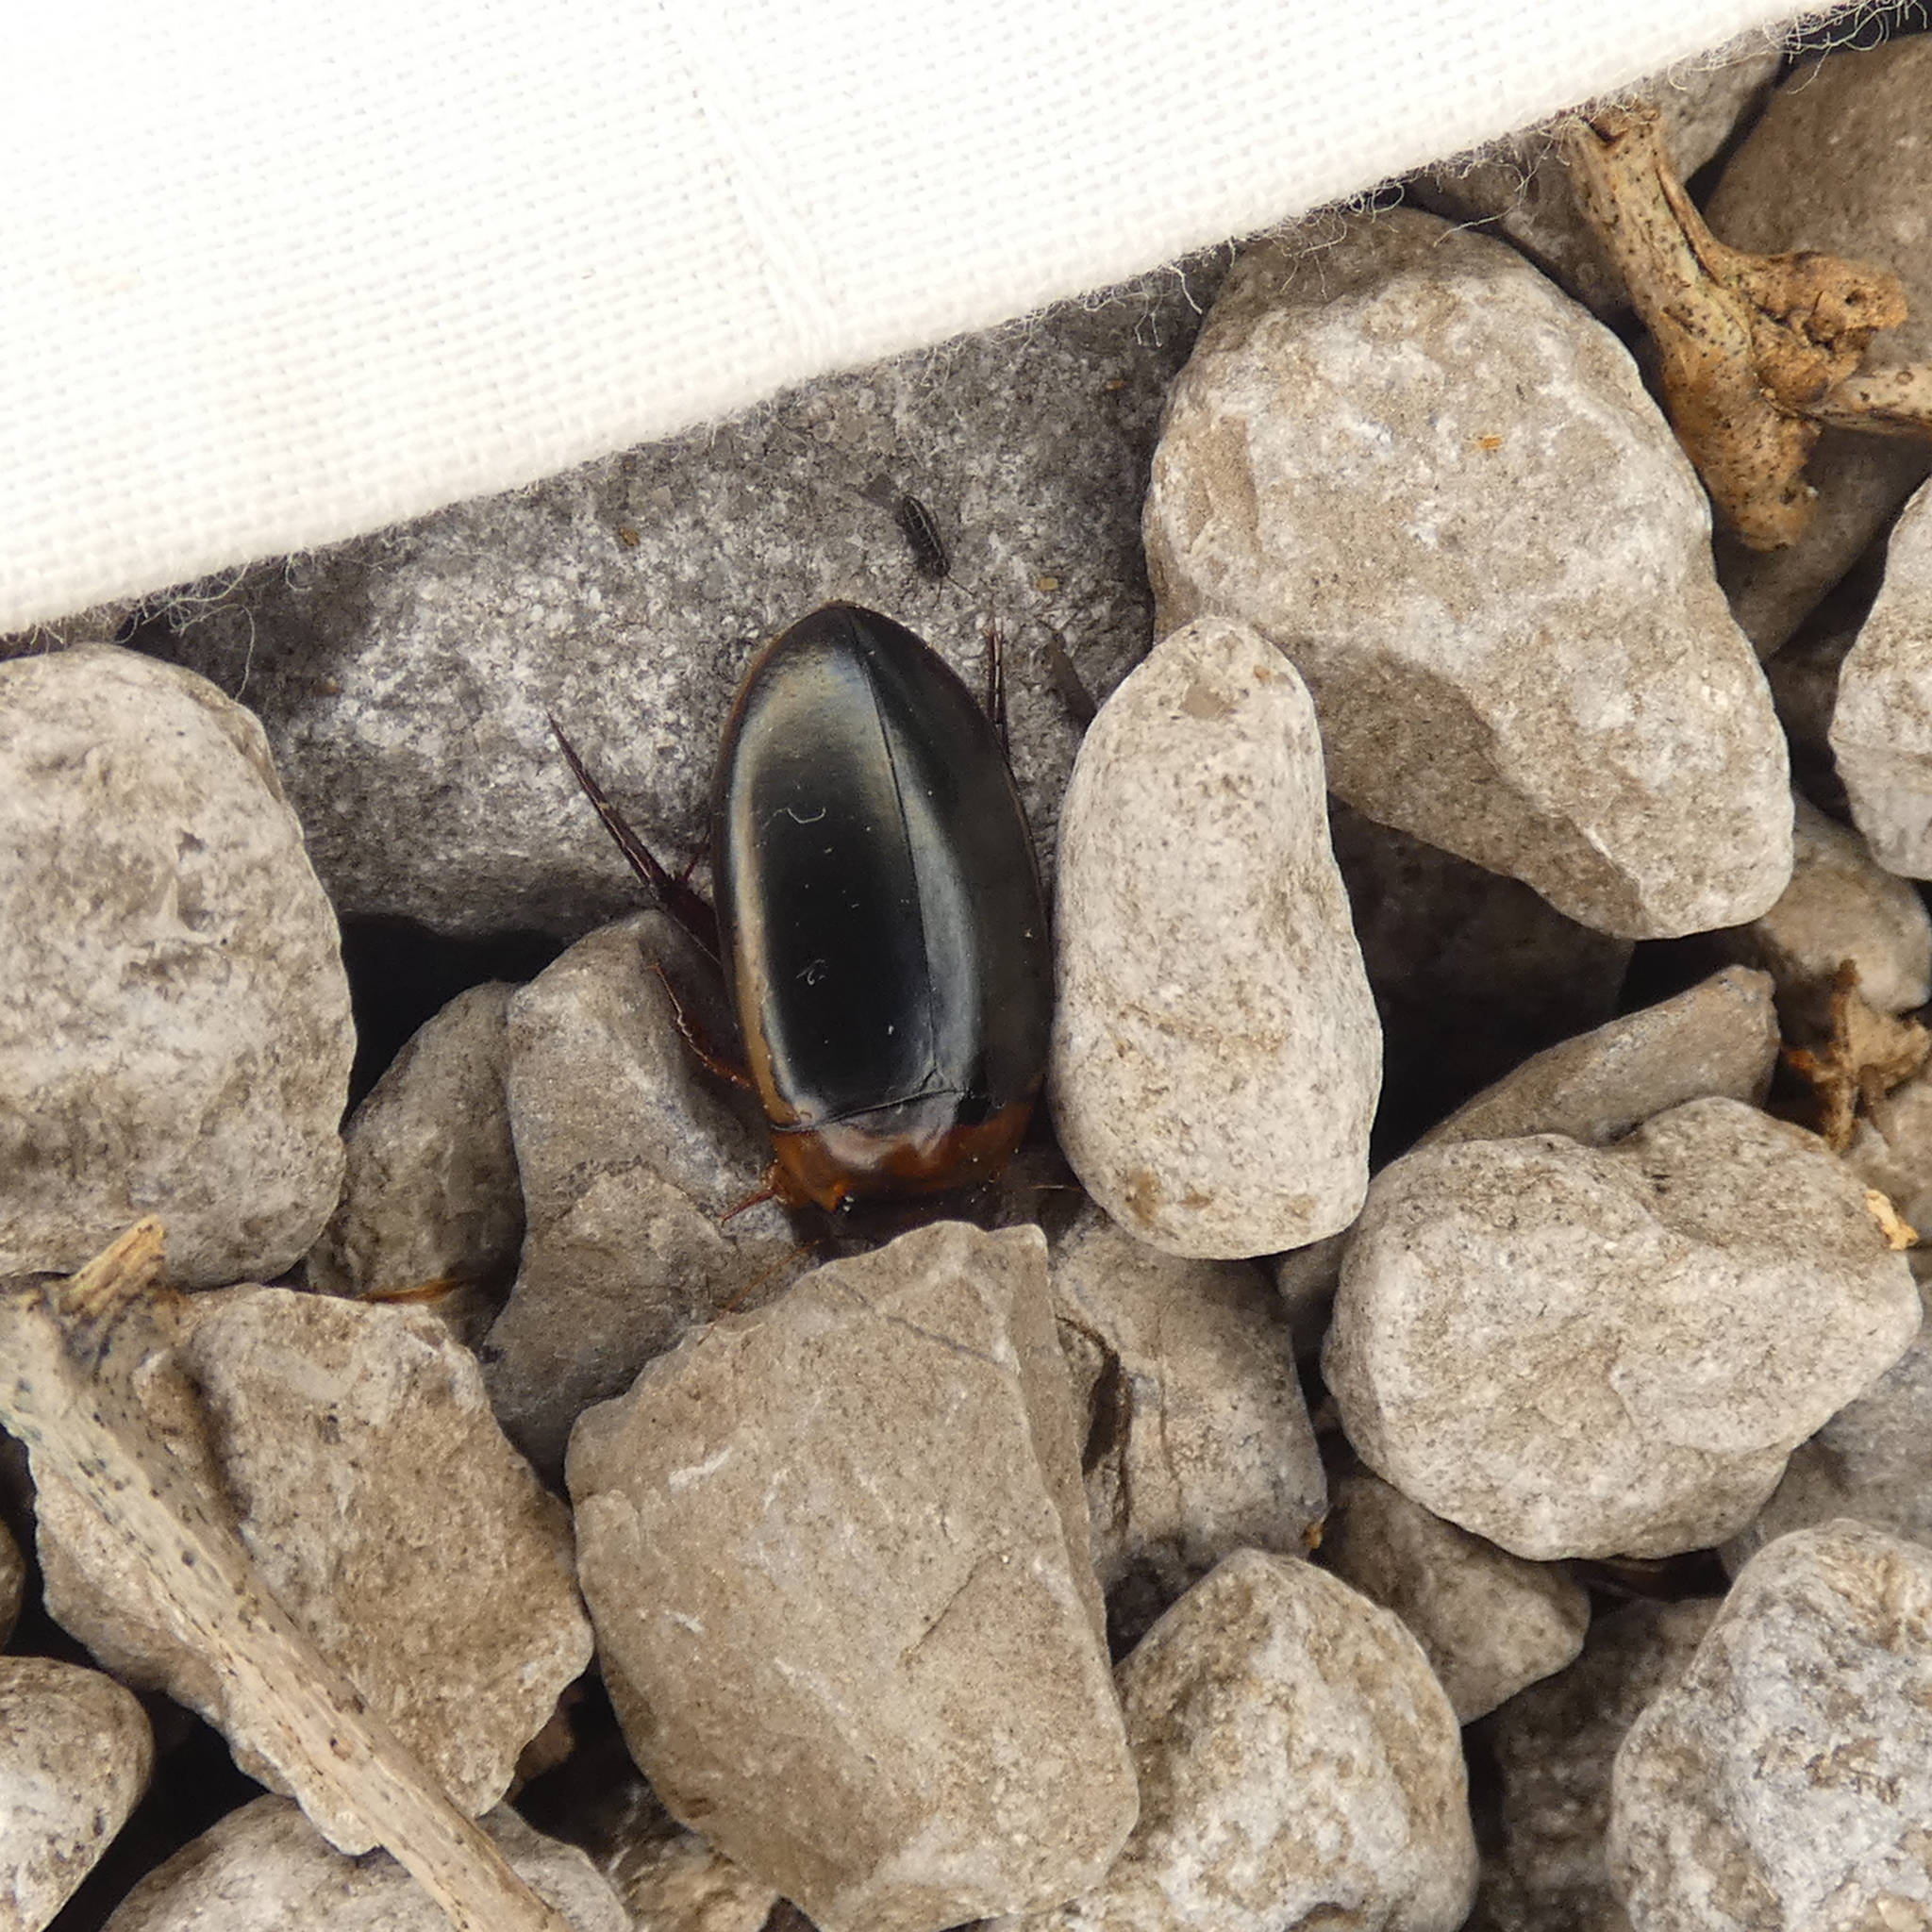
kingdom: Animalia
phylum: Arthropoda
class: Insecta
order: Coleoptera
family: Dytiscidae
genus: Hydaticus
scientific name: Hydaticus bimarginatus
